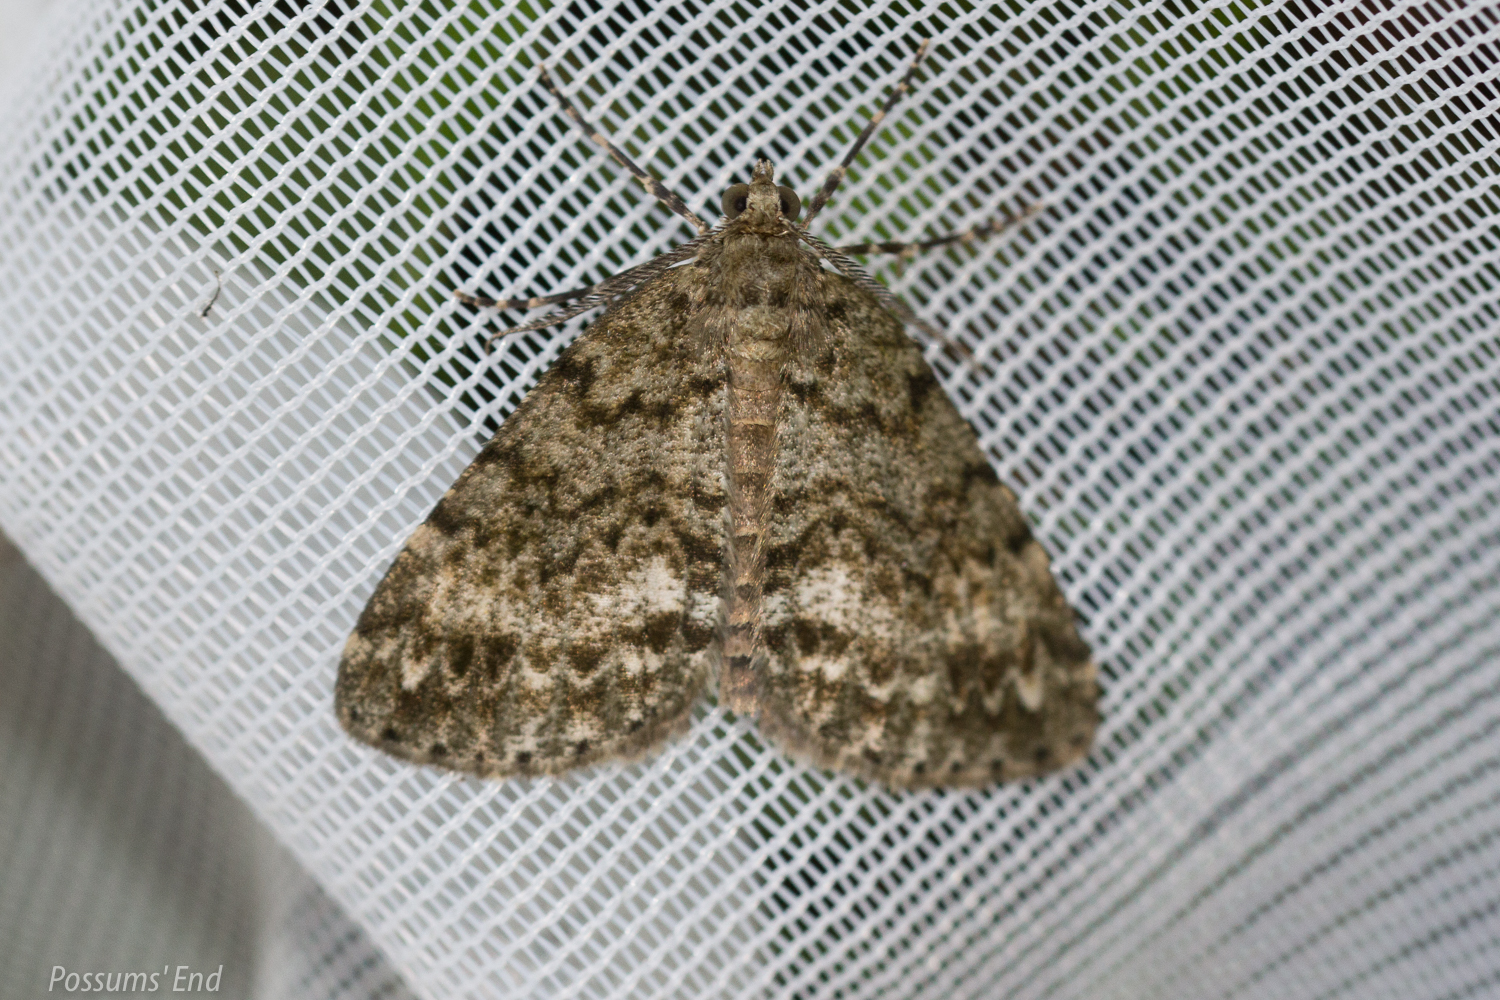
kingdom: Animalia
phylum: Arthropoda
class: Insecta
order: Lepidoptera
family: Geometridae
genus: Pseudocoremia
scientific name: Pseudocoremia indistincta
